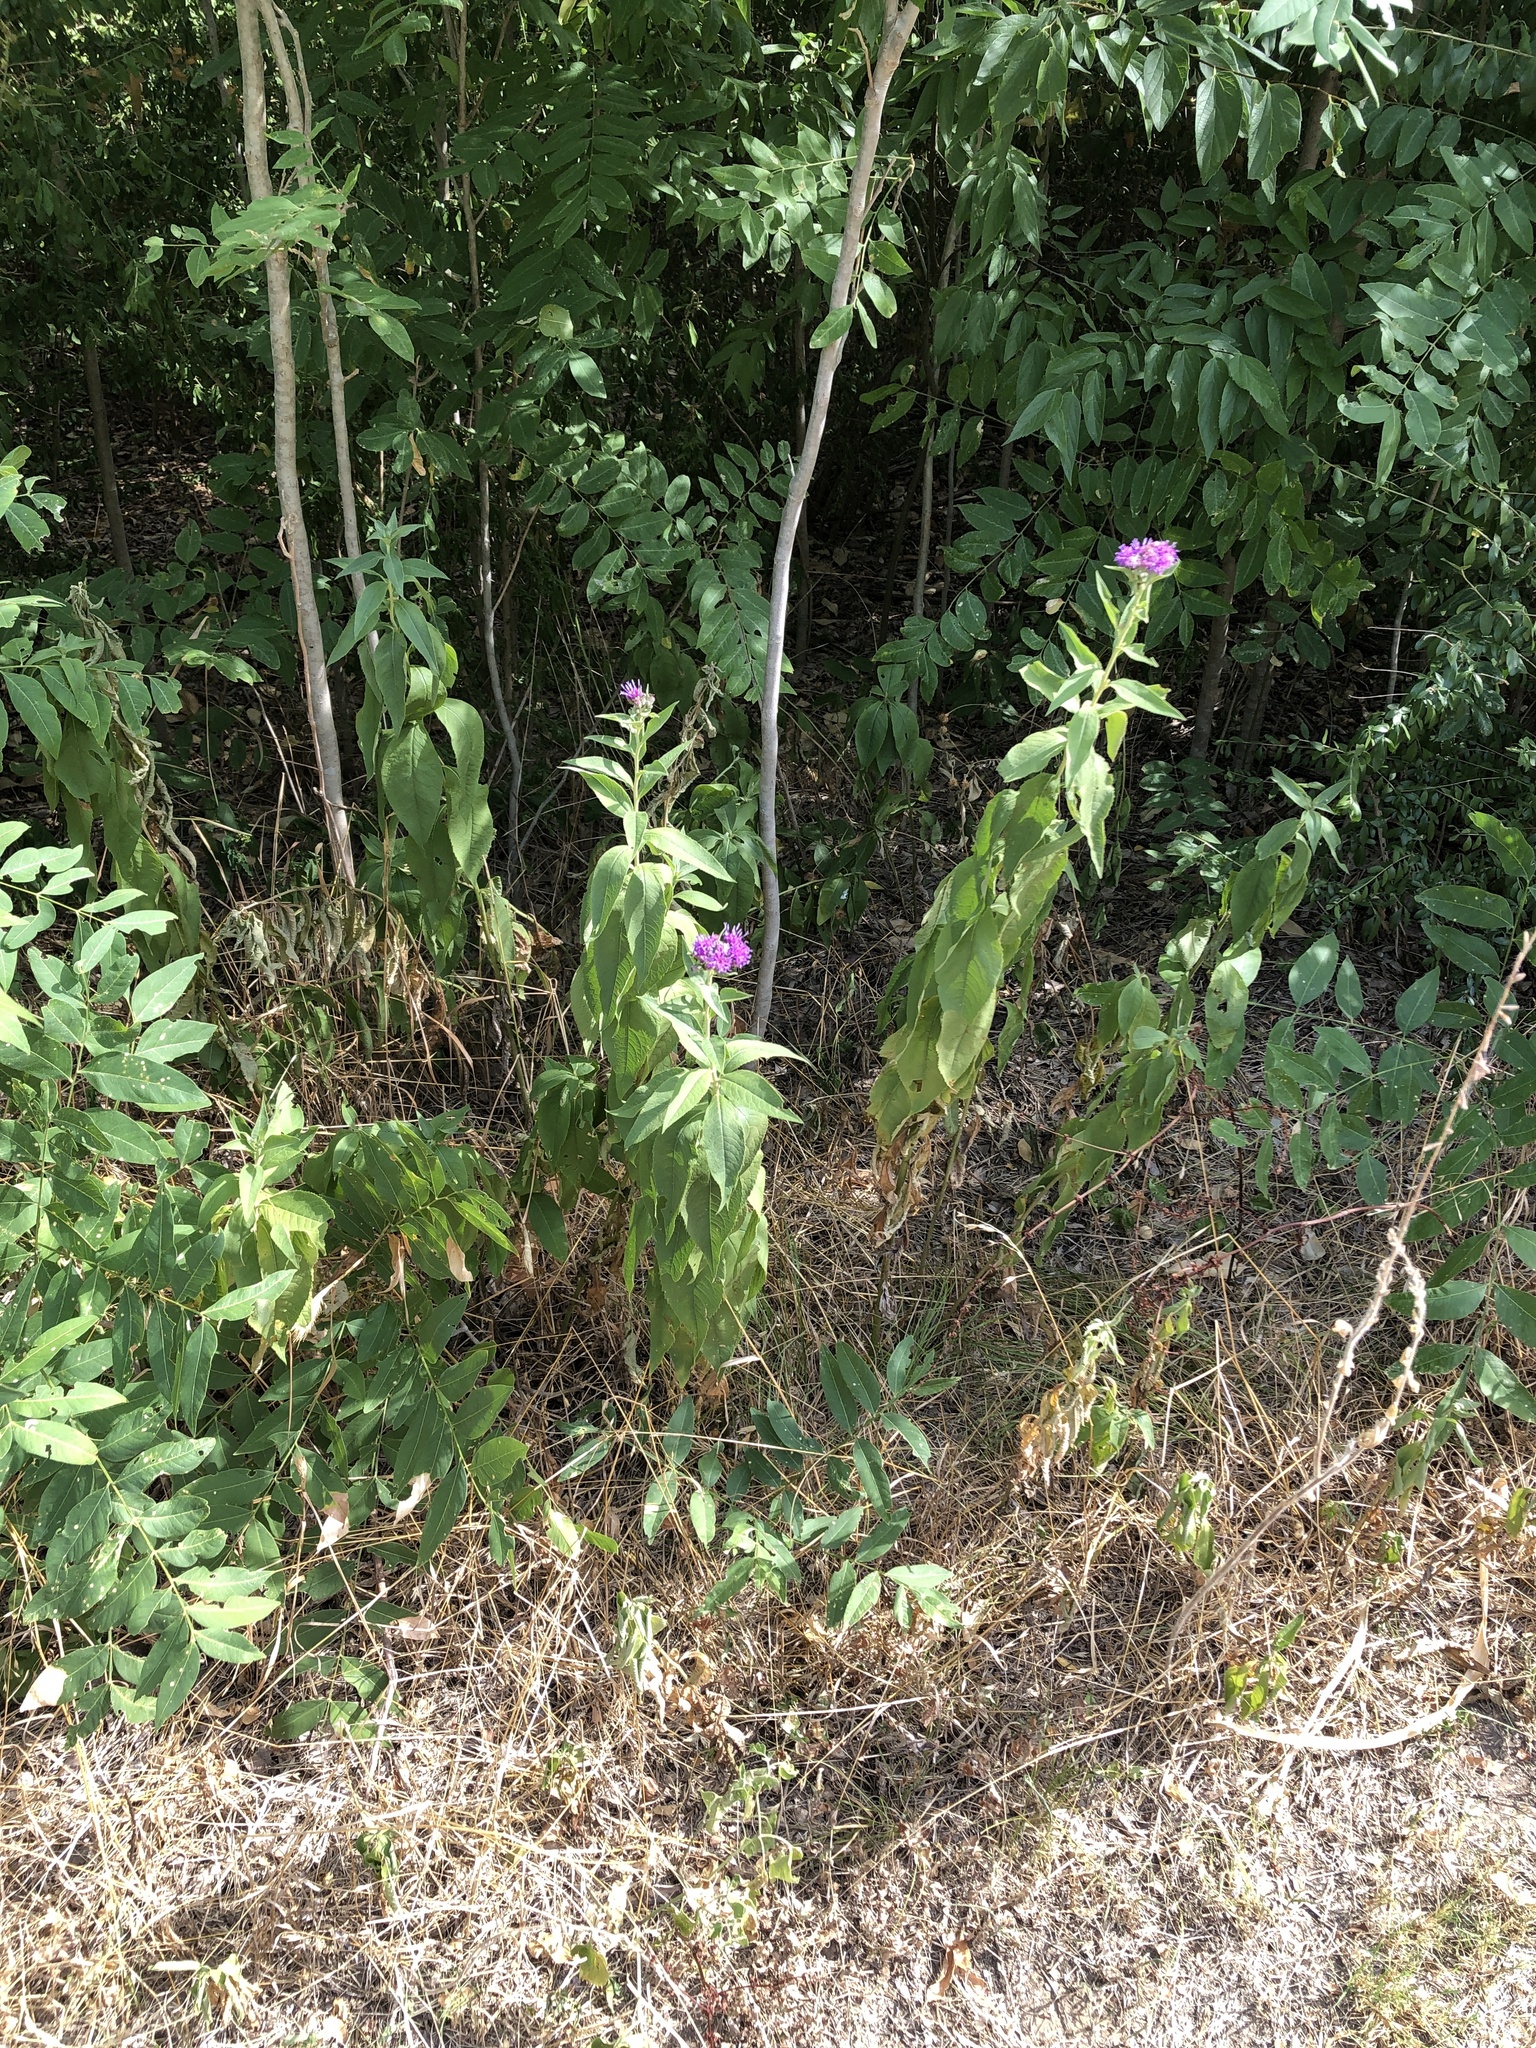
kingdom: Plantae
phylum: Tracheophyta
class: Magnoliopsida
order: Asterales
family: Asteraceae
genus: Vernonia
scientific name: Vernonia baldwinii
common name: Western ironweed
